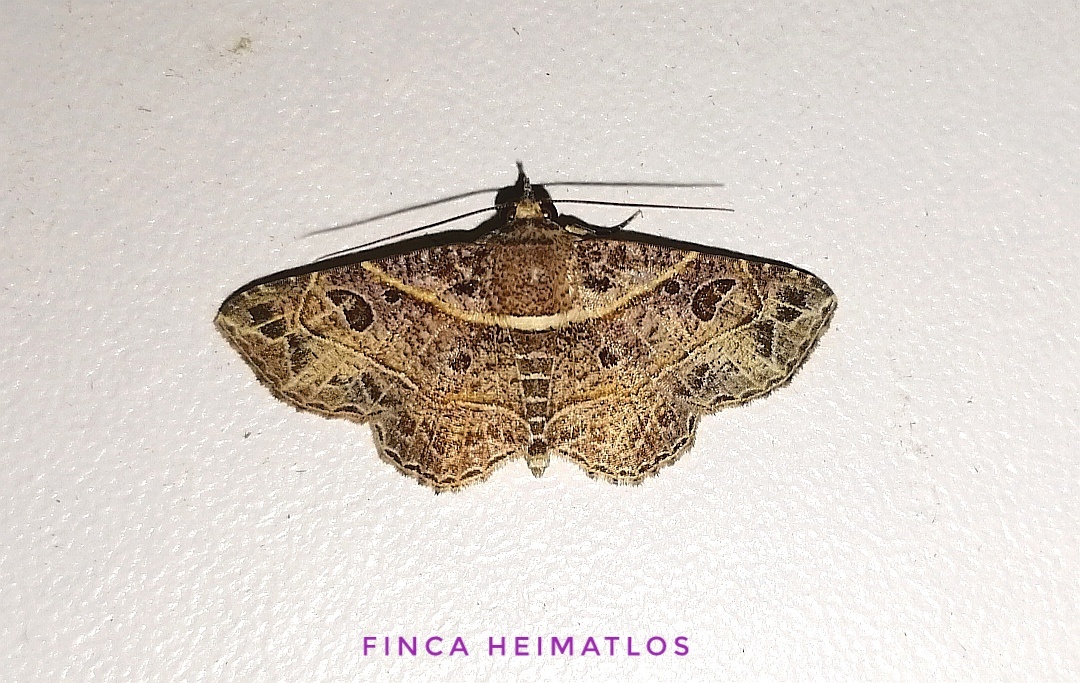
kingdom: Animalia
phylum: Arthropoda
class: Insecta
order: Lepidoptera
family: Erebidae
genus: Antiblemma
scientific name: Antiblemma phaedra
